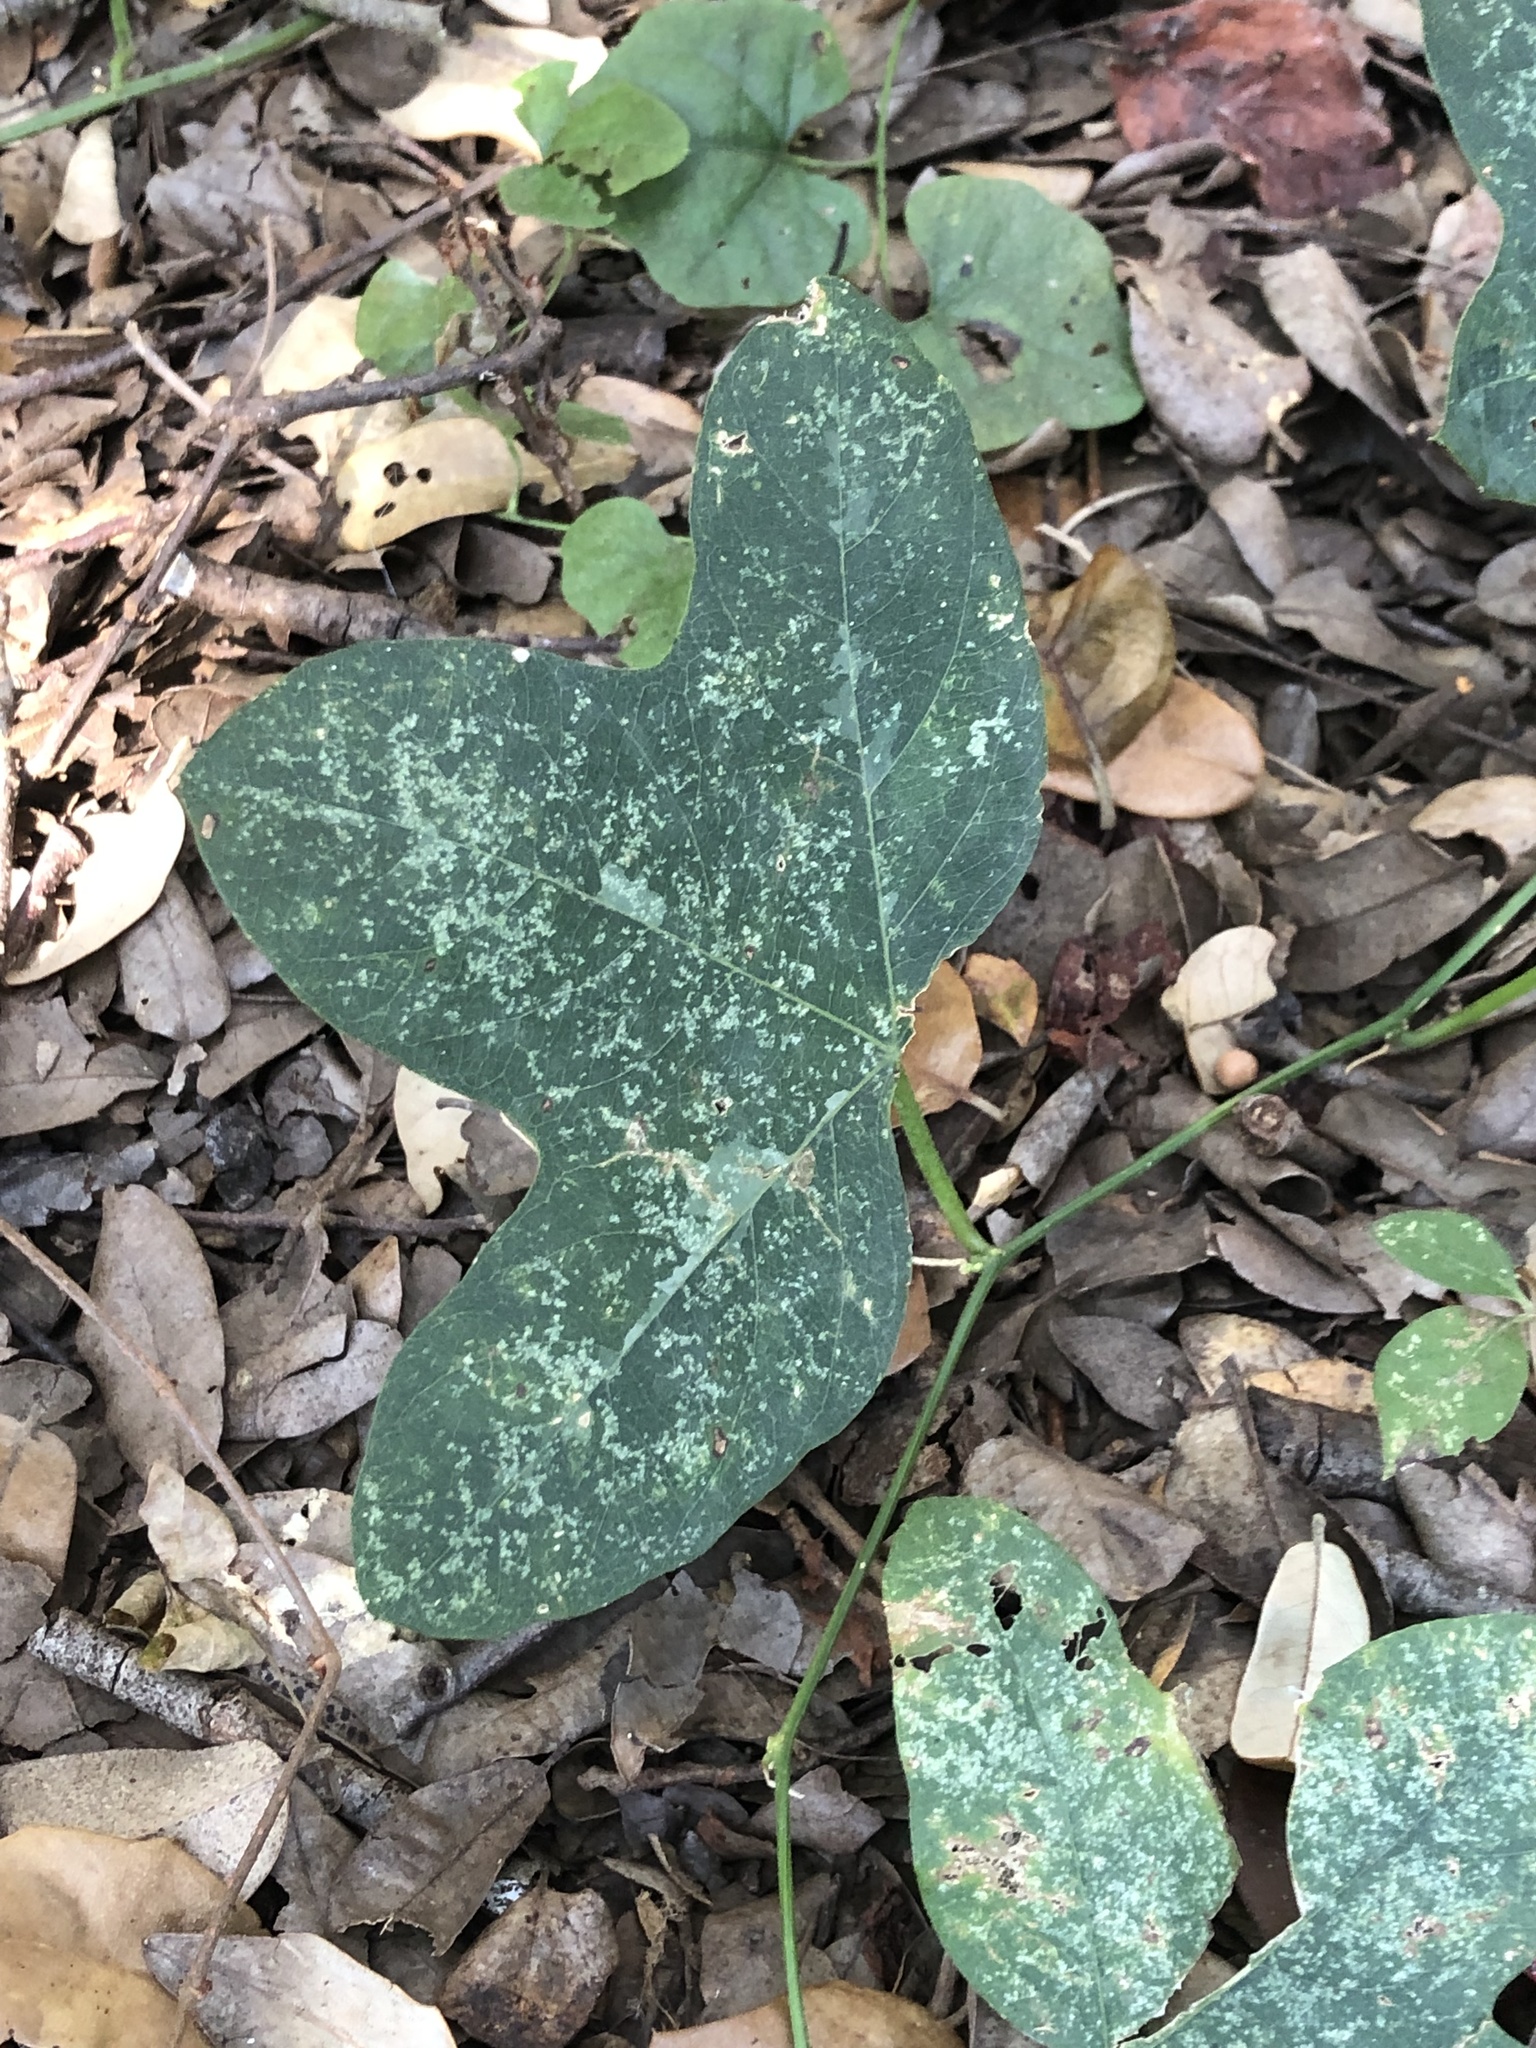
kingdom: Plantae
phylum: Tracheophyta
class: Magnoliopsida
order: Malpighiales
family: Passifloraceae
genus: Passiflora
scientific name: Passiflora lutea
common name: Yellow passionflower
